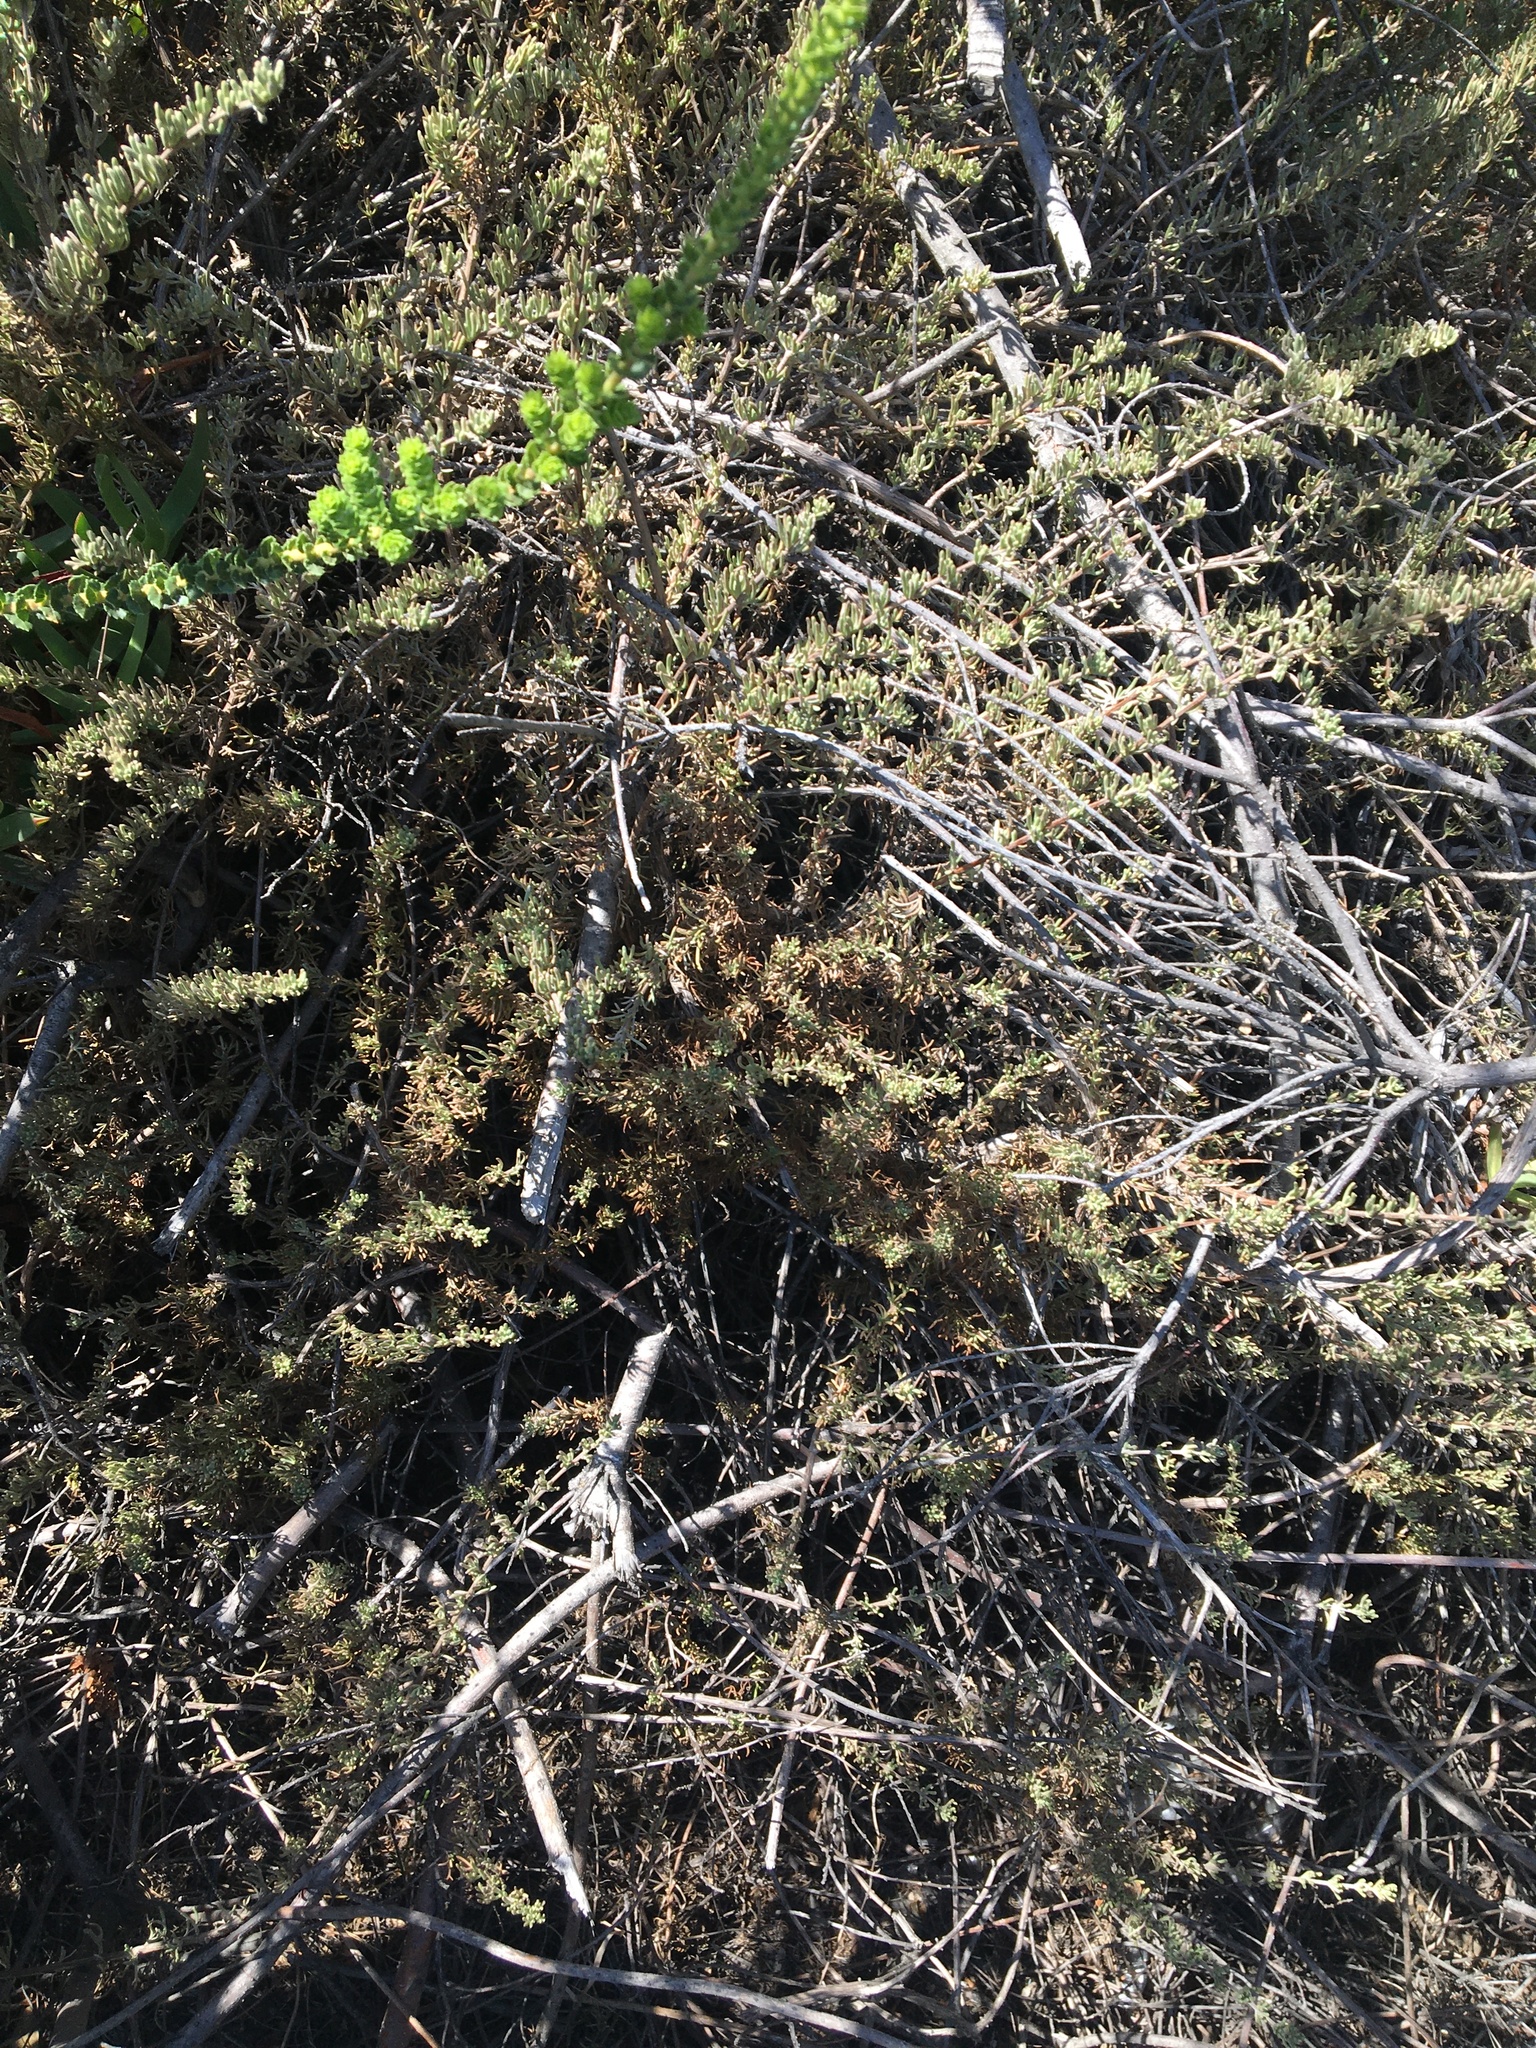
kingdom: Plantae
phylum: Tracheophyta
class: Magnoliopsida
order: Asterales
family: Asteraceae
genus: Eriocephalus
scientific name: Eriocephalus africanus
